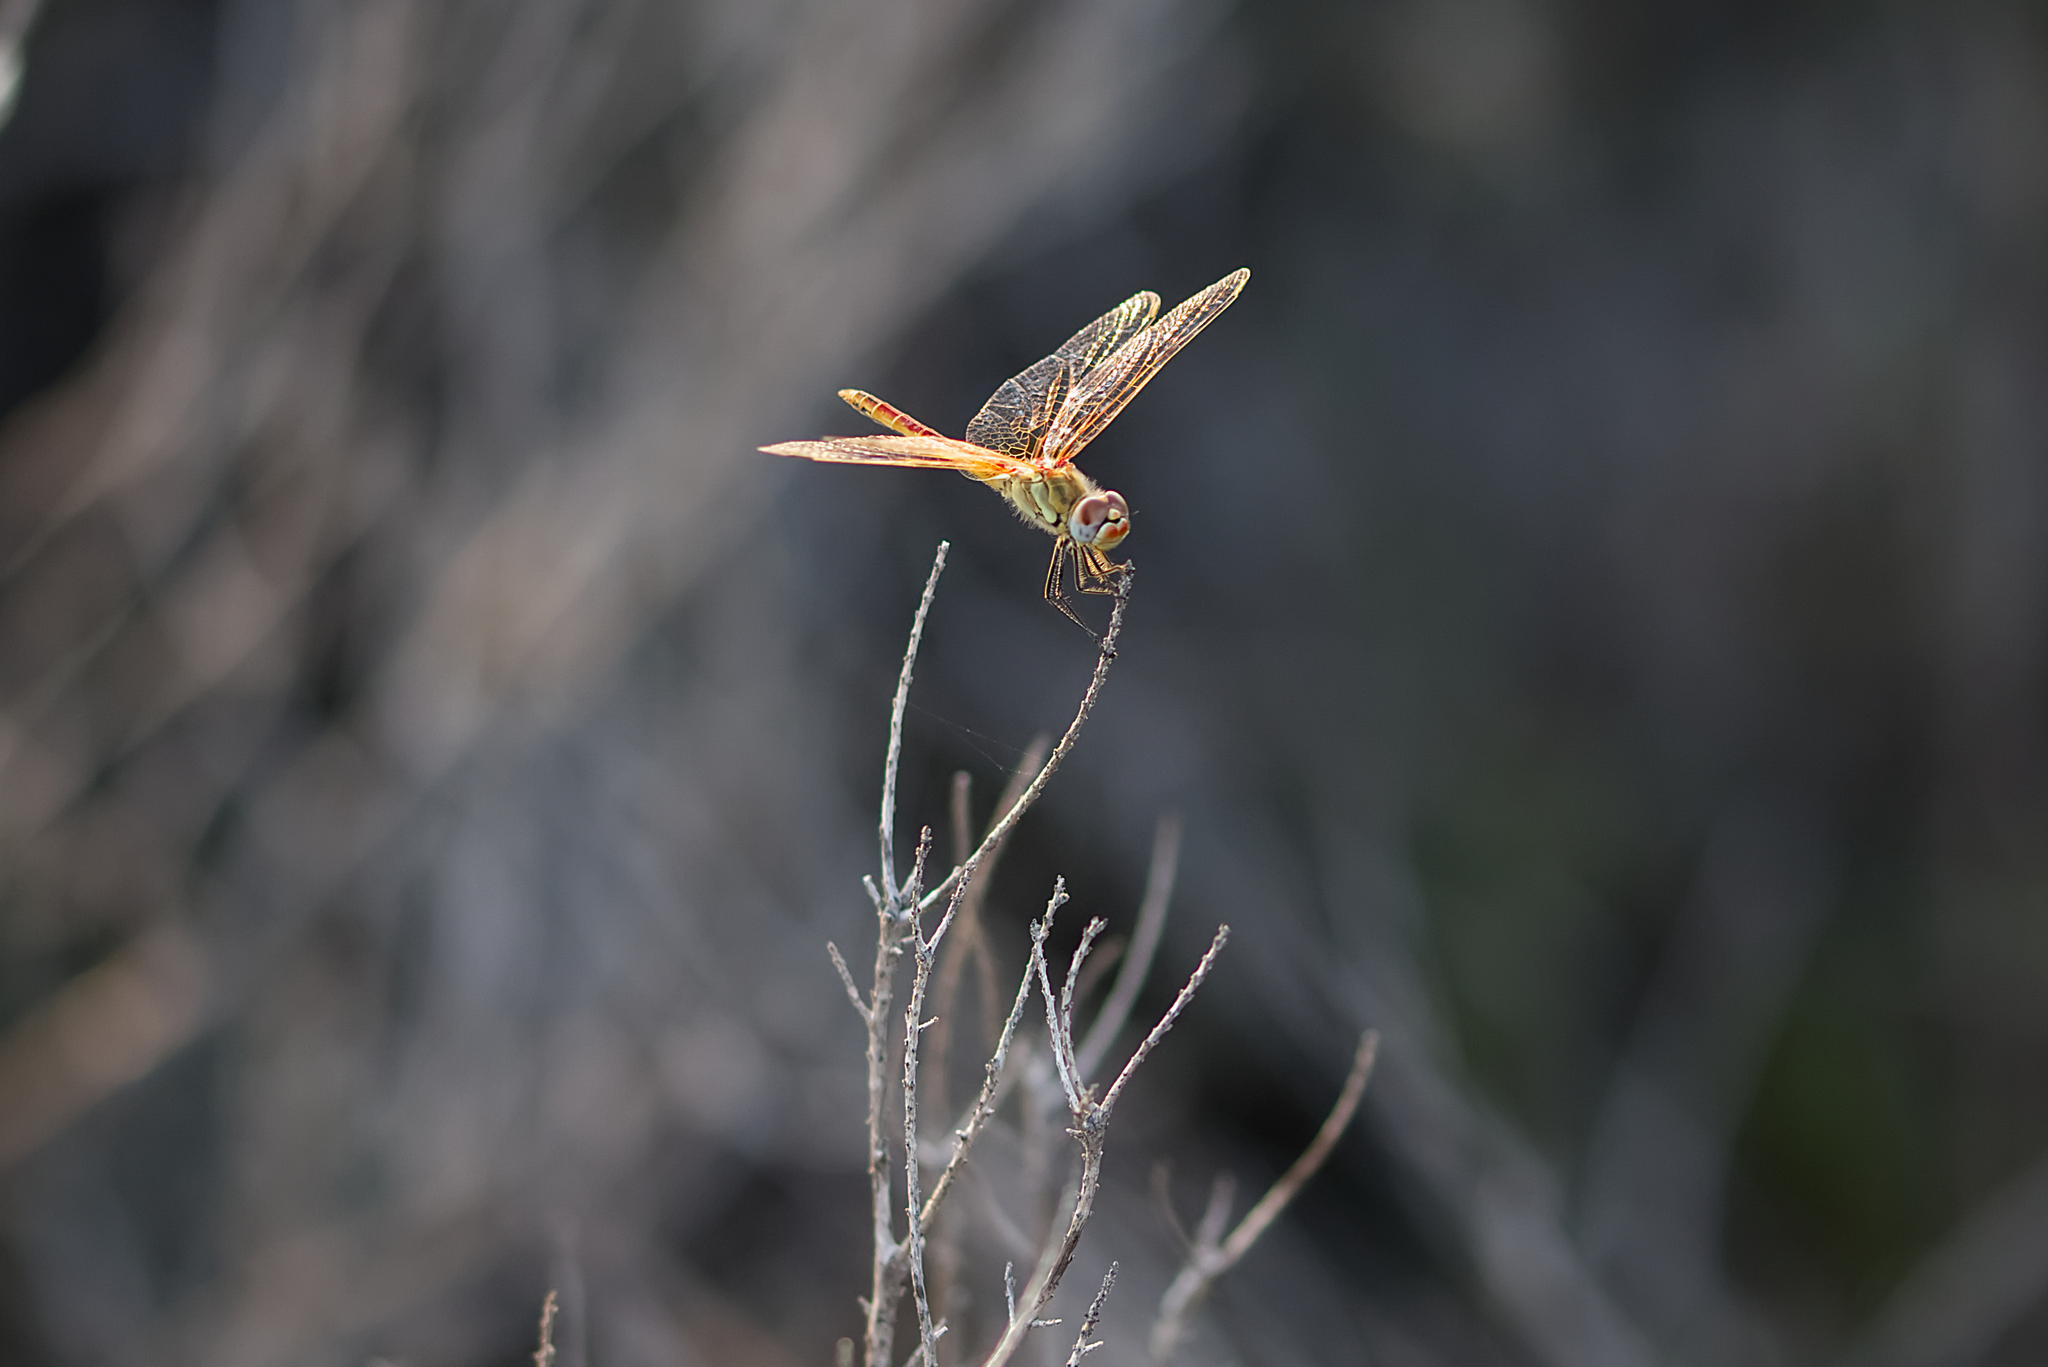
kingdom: Animalia
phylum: Arthropoda
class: Insecta
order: Odonata
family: Libellulidae
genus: Sympetrum
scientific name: Sympetrum fonscolombii
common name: Red-veined darter
